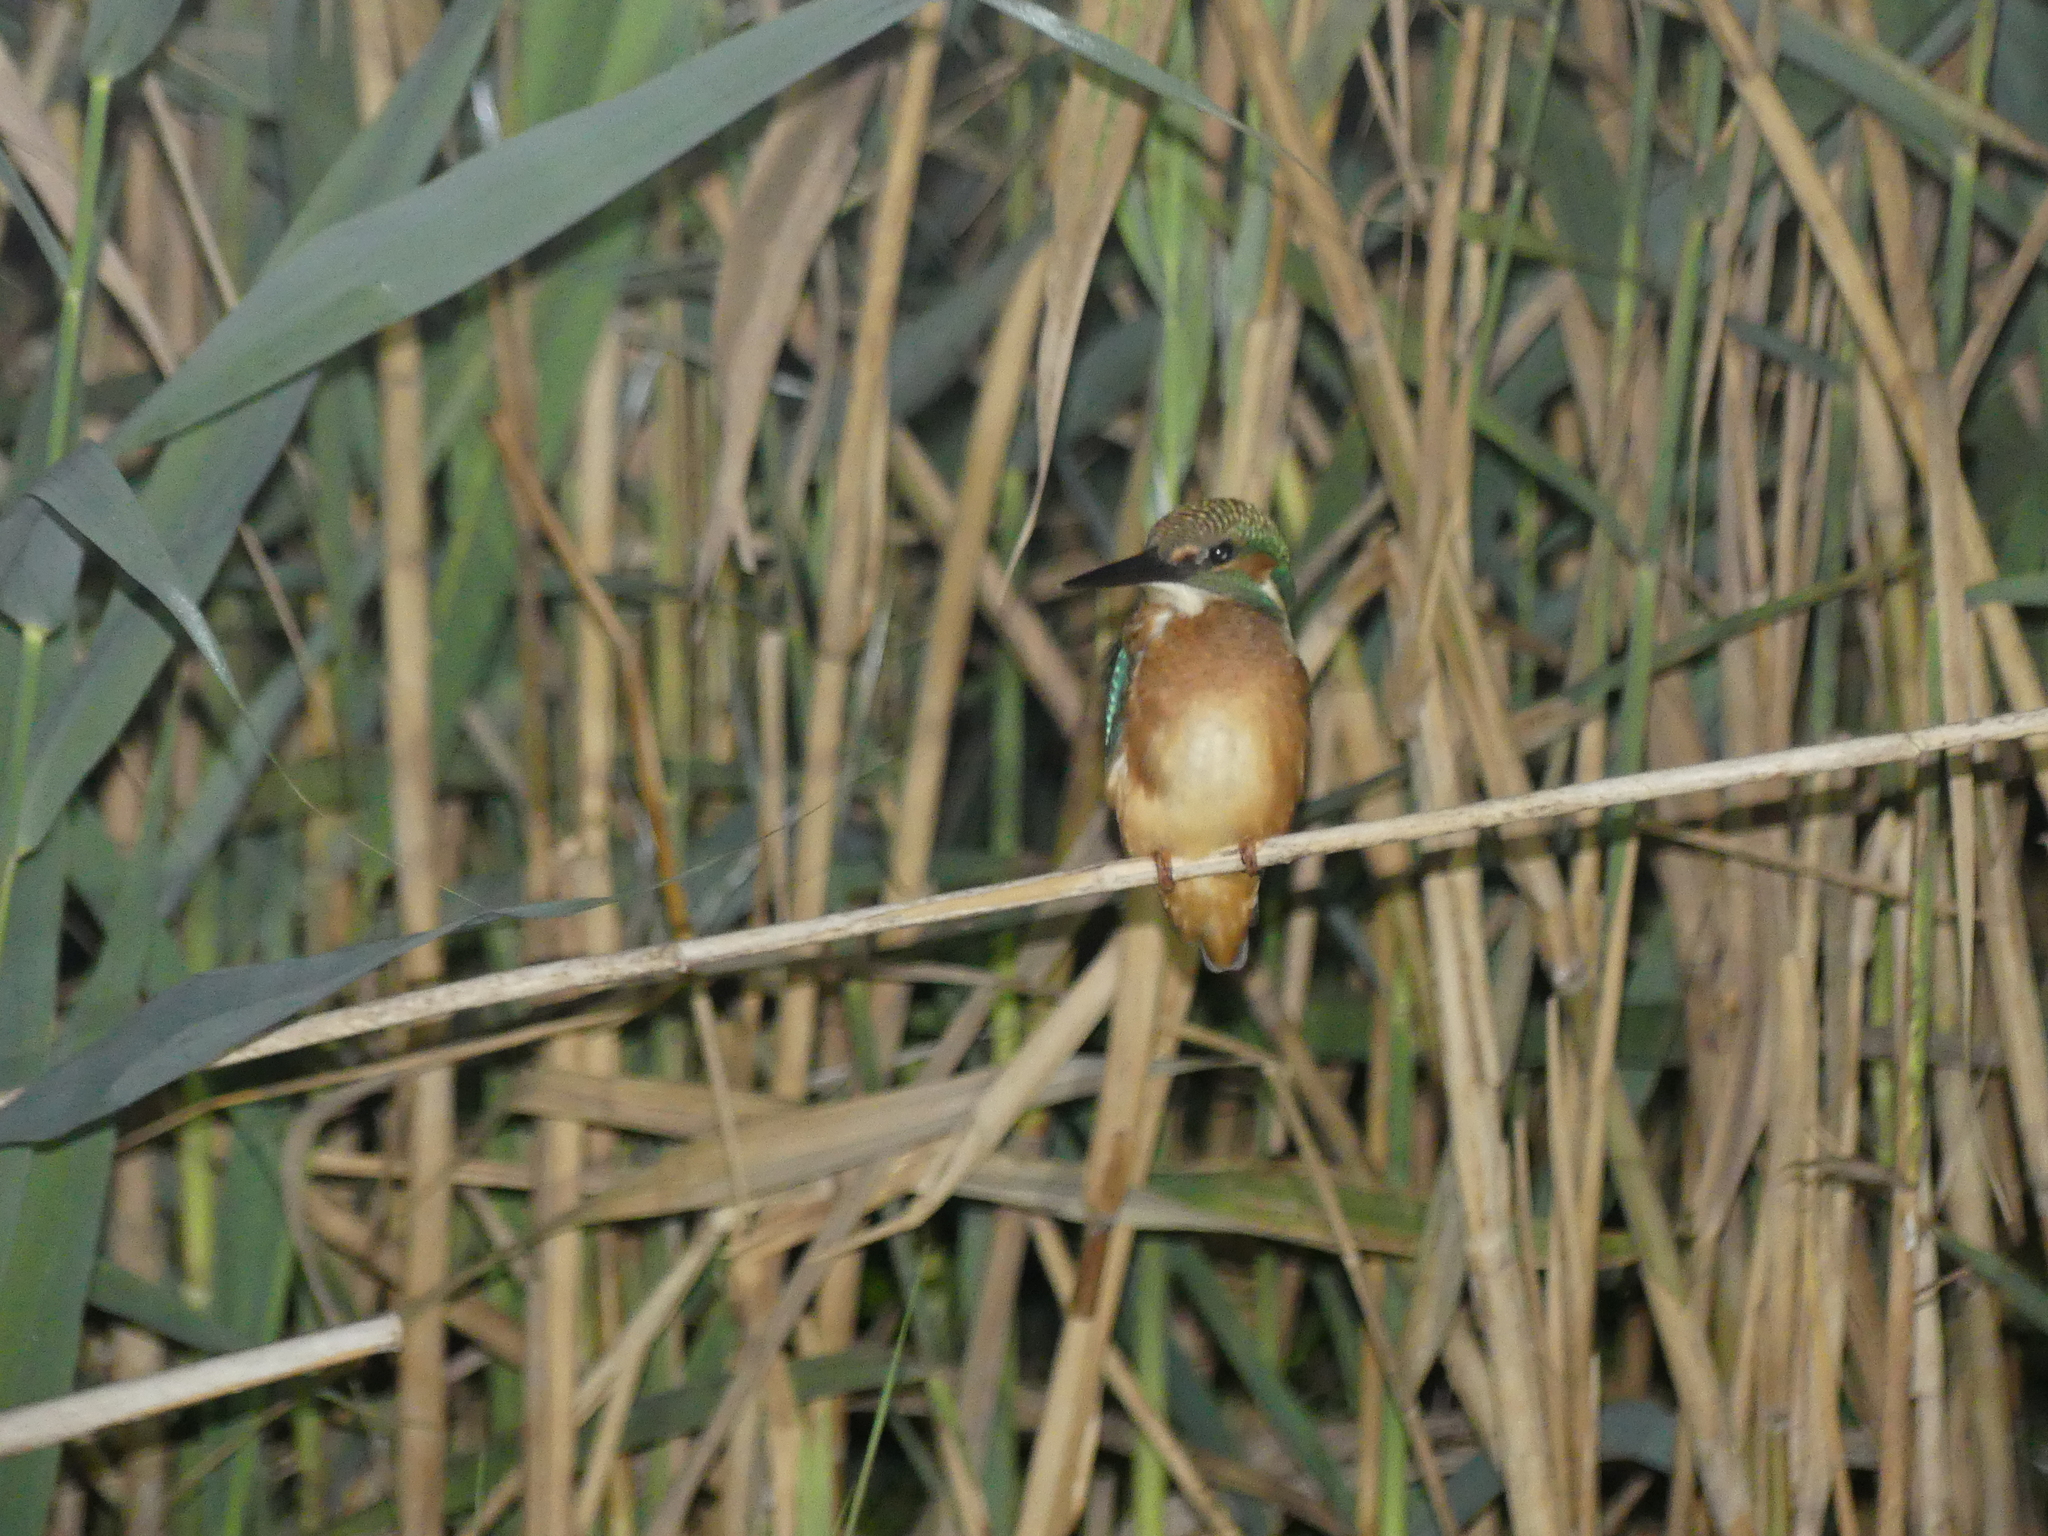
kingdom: Animalia
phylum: Chordata
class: Aves
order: Coraciiformes
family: Alcedinidae
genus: Alcedo
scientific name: Alcedo atthis
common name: Common kingfisher
